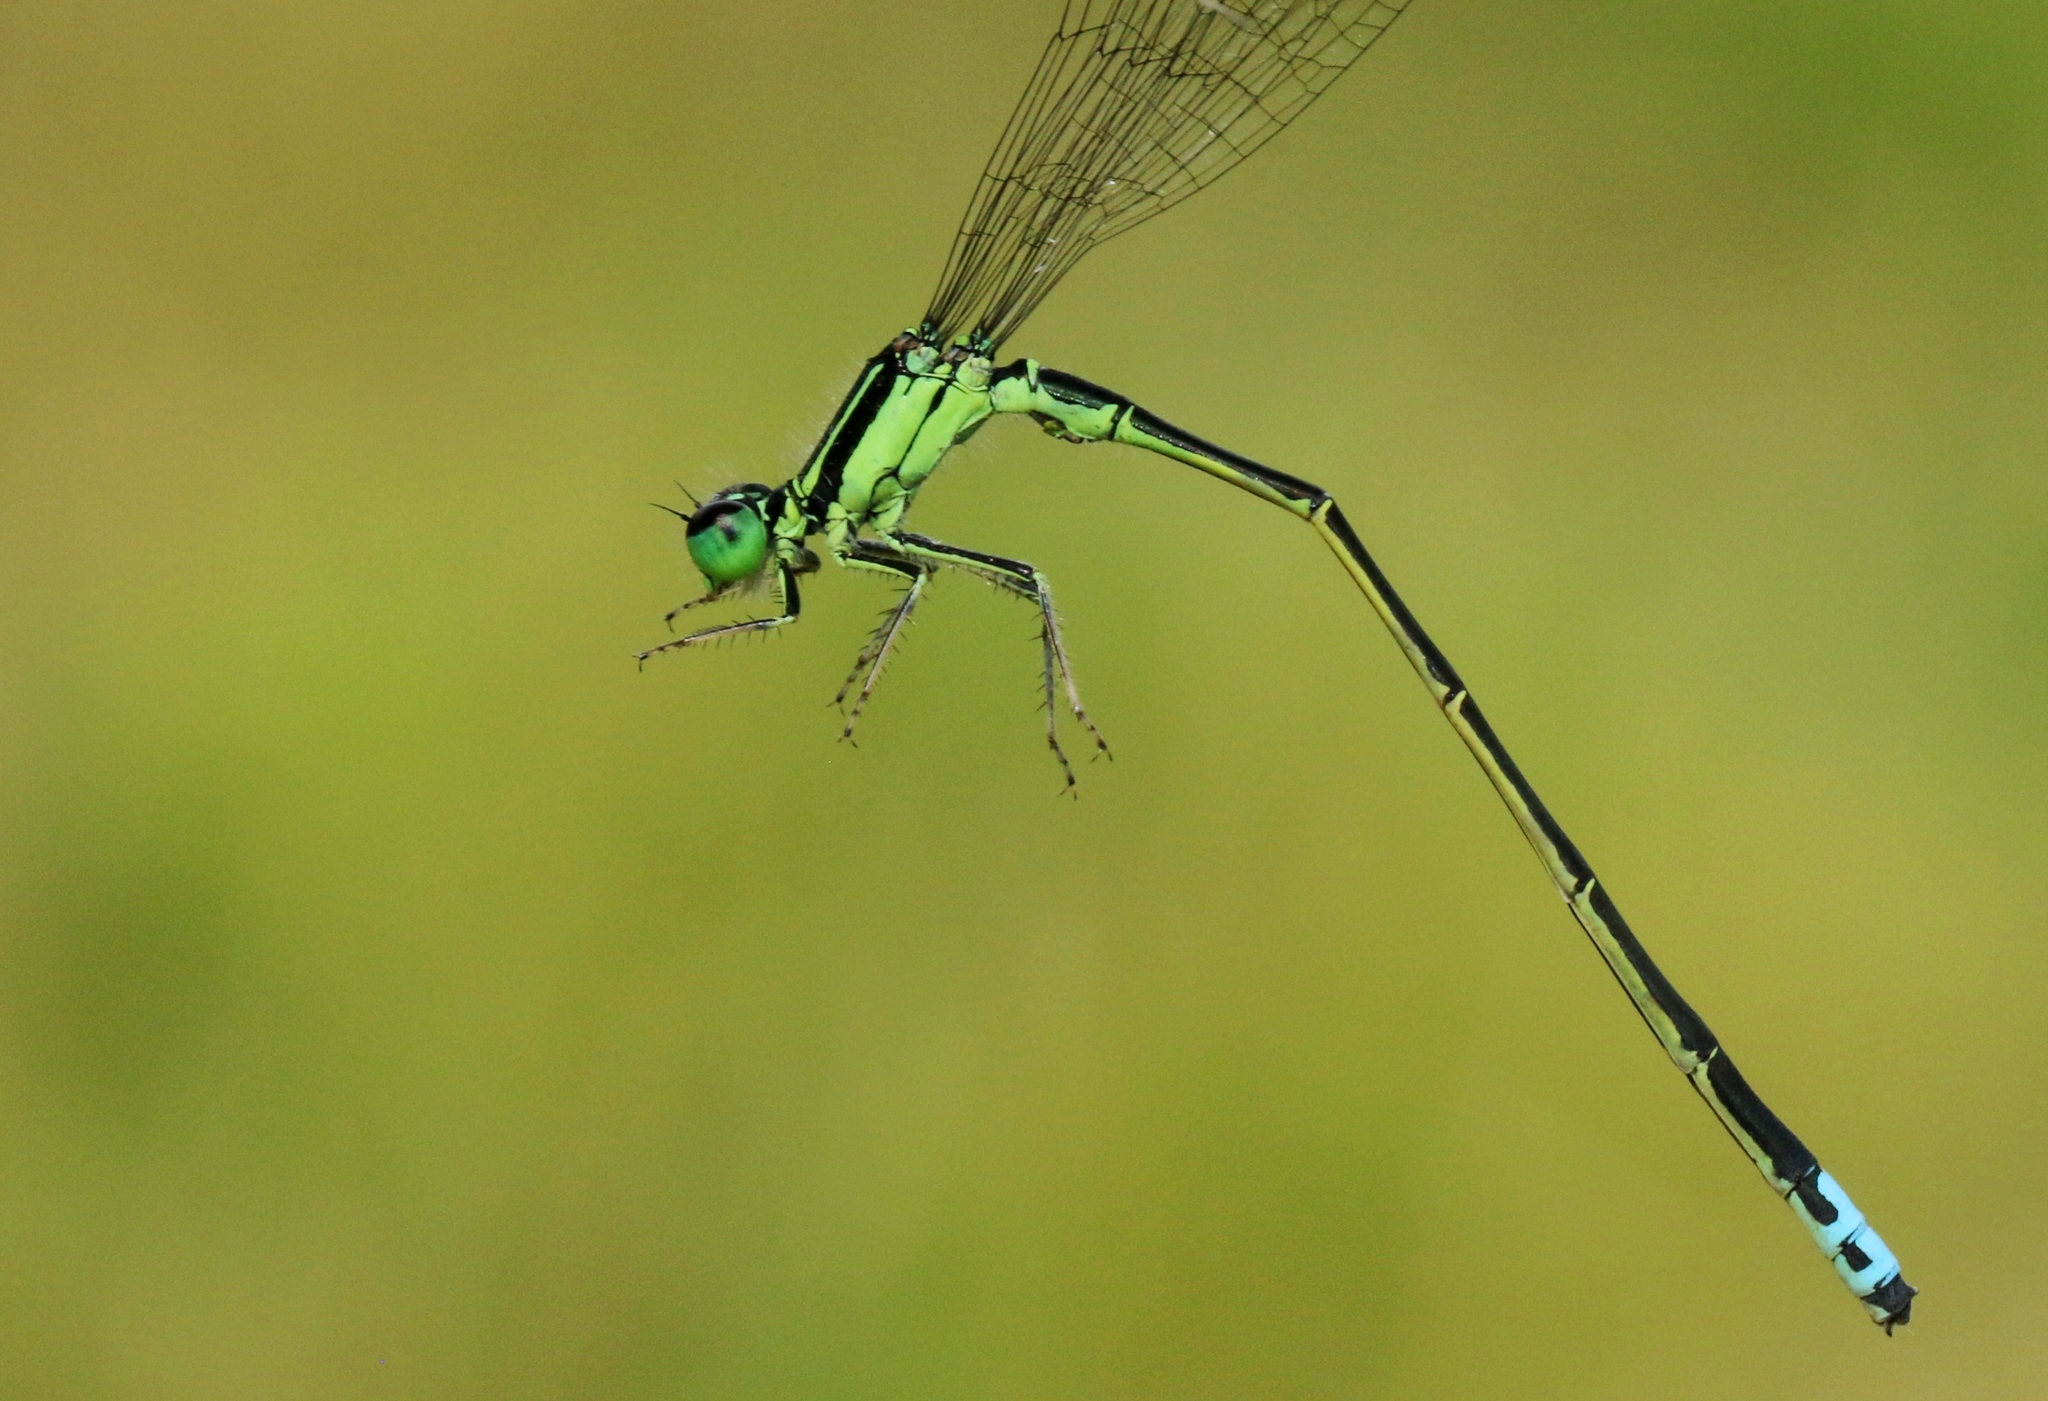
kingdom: Animalia
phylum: Arthropoda
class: Insecta
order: Odonata
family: Coenagrionidae
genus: Ischnura
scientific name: Ischnura verticalis
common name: Eastern forktail
